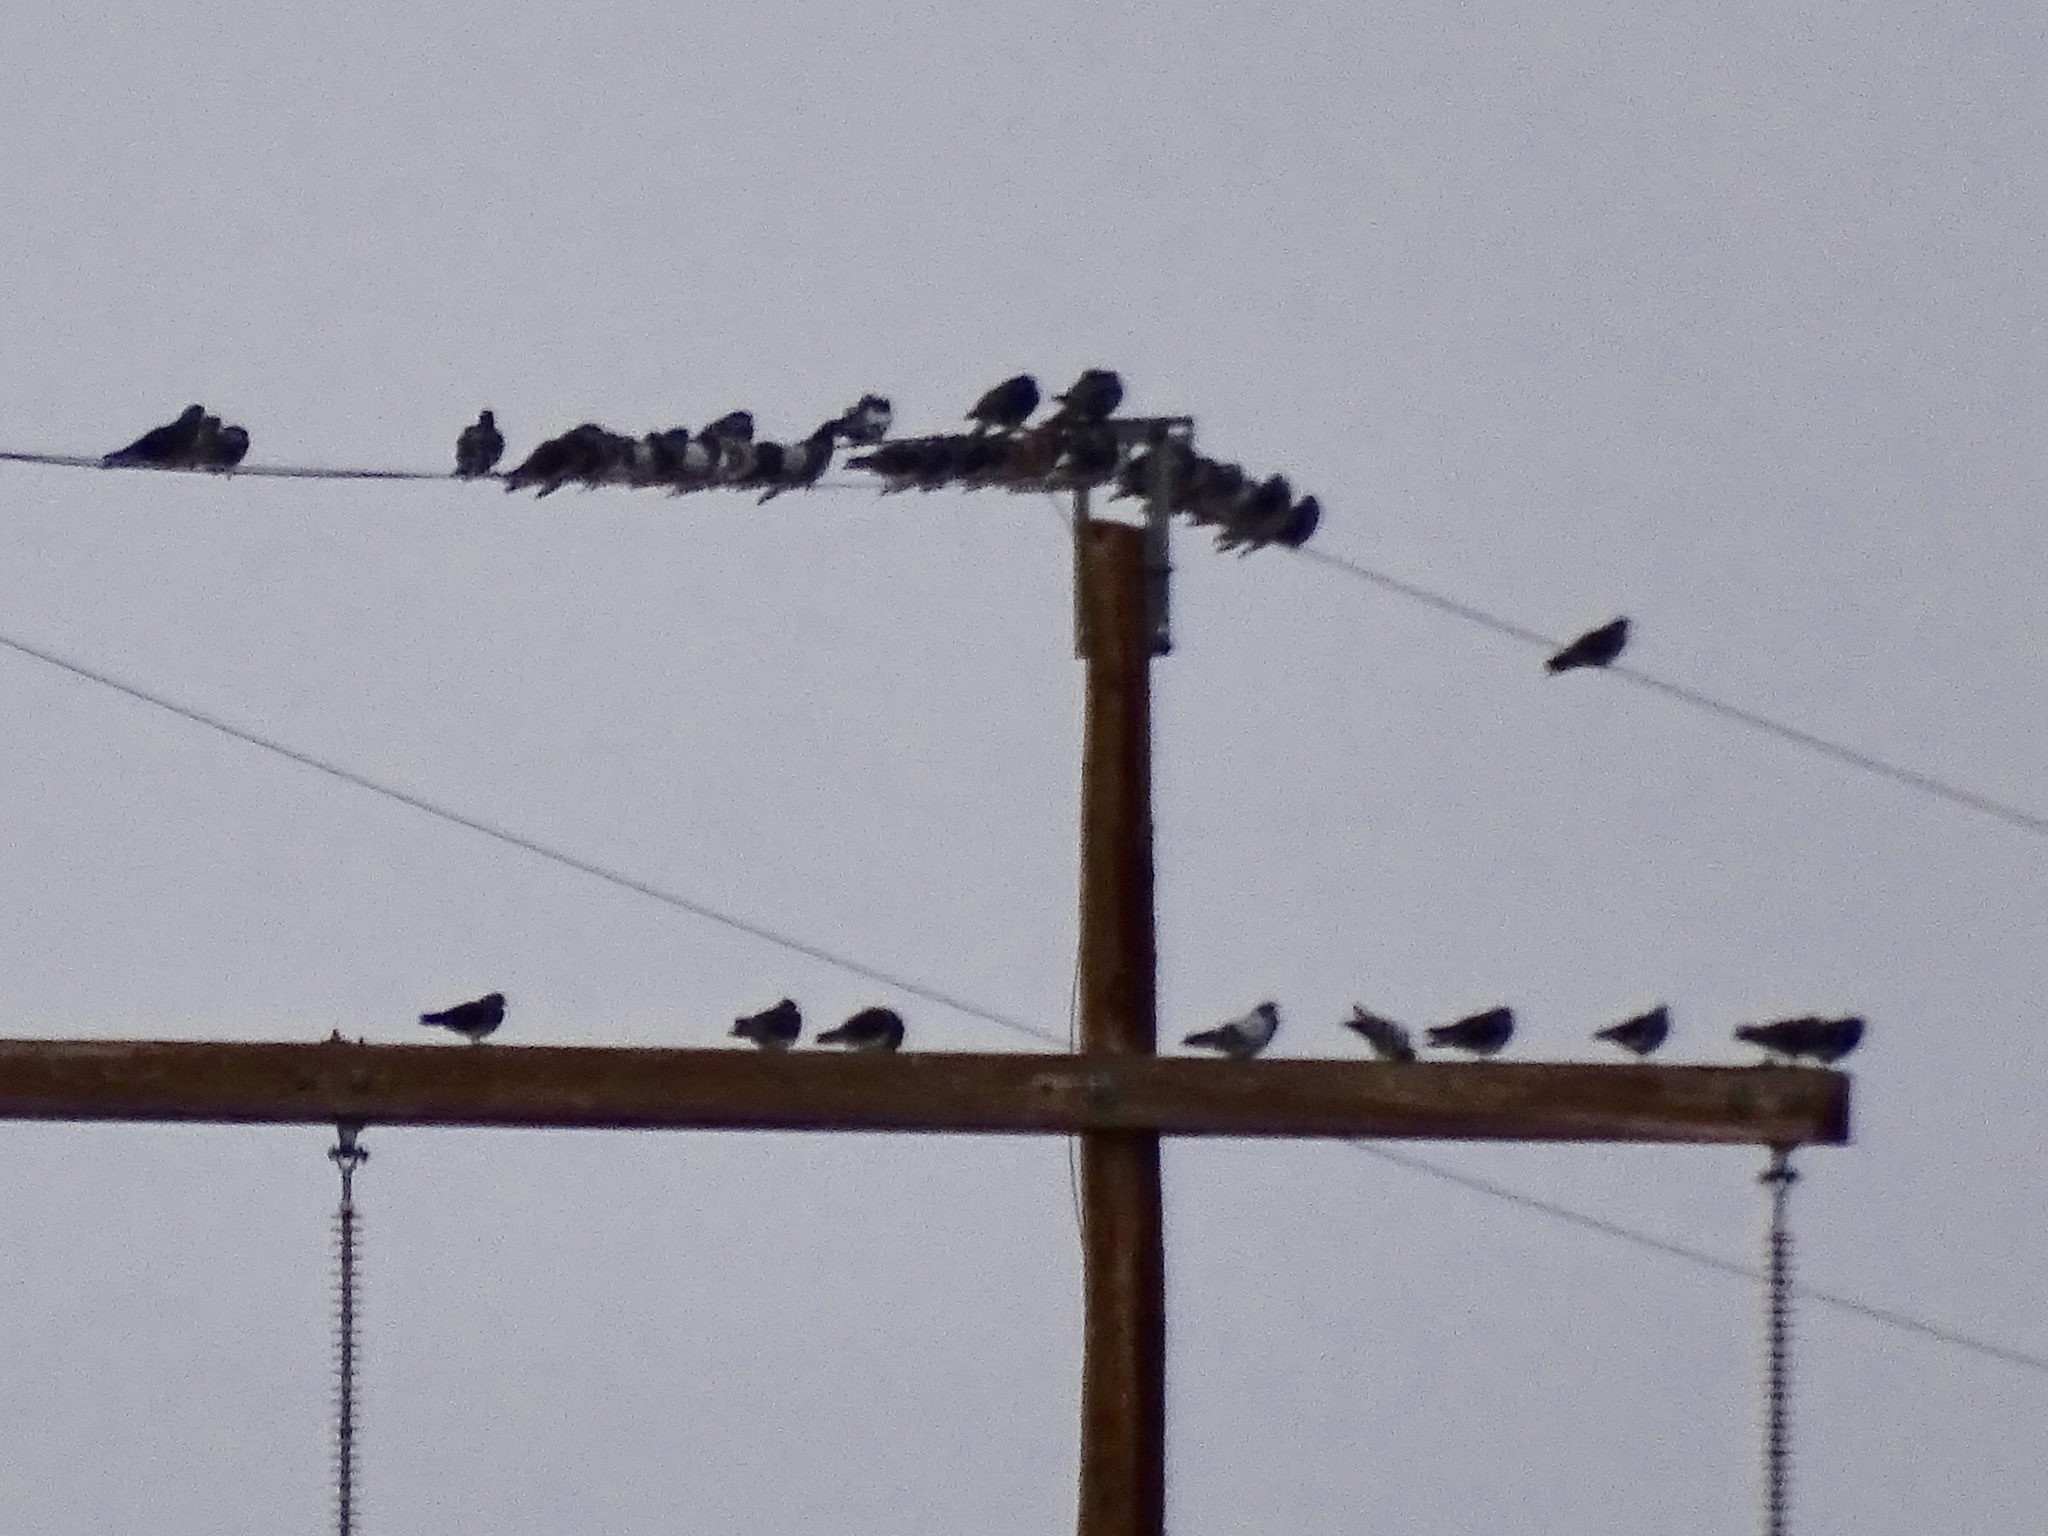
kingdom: Animalia
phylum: Chordata
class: Aves
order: Columbiformes
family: Columbidae
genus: Columba
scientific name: Columba livia
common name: Rock pigeon
